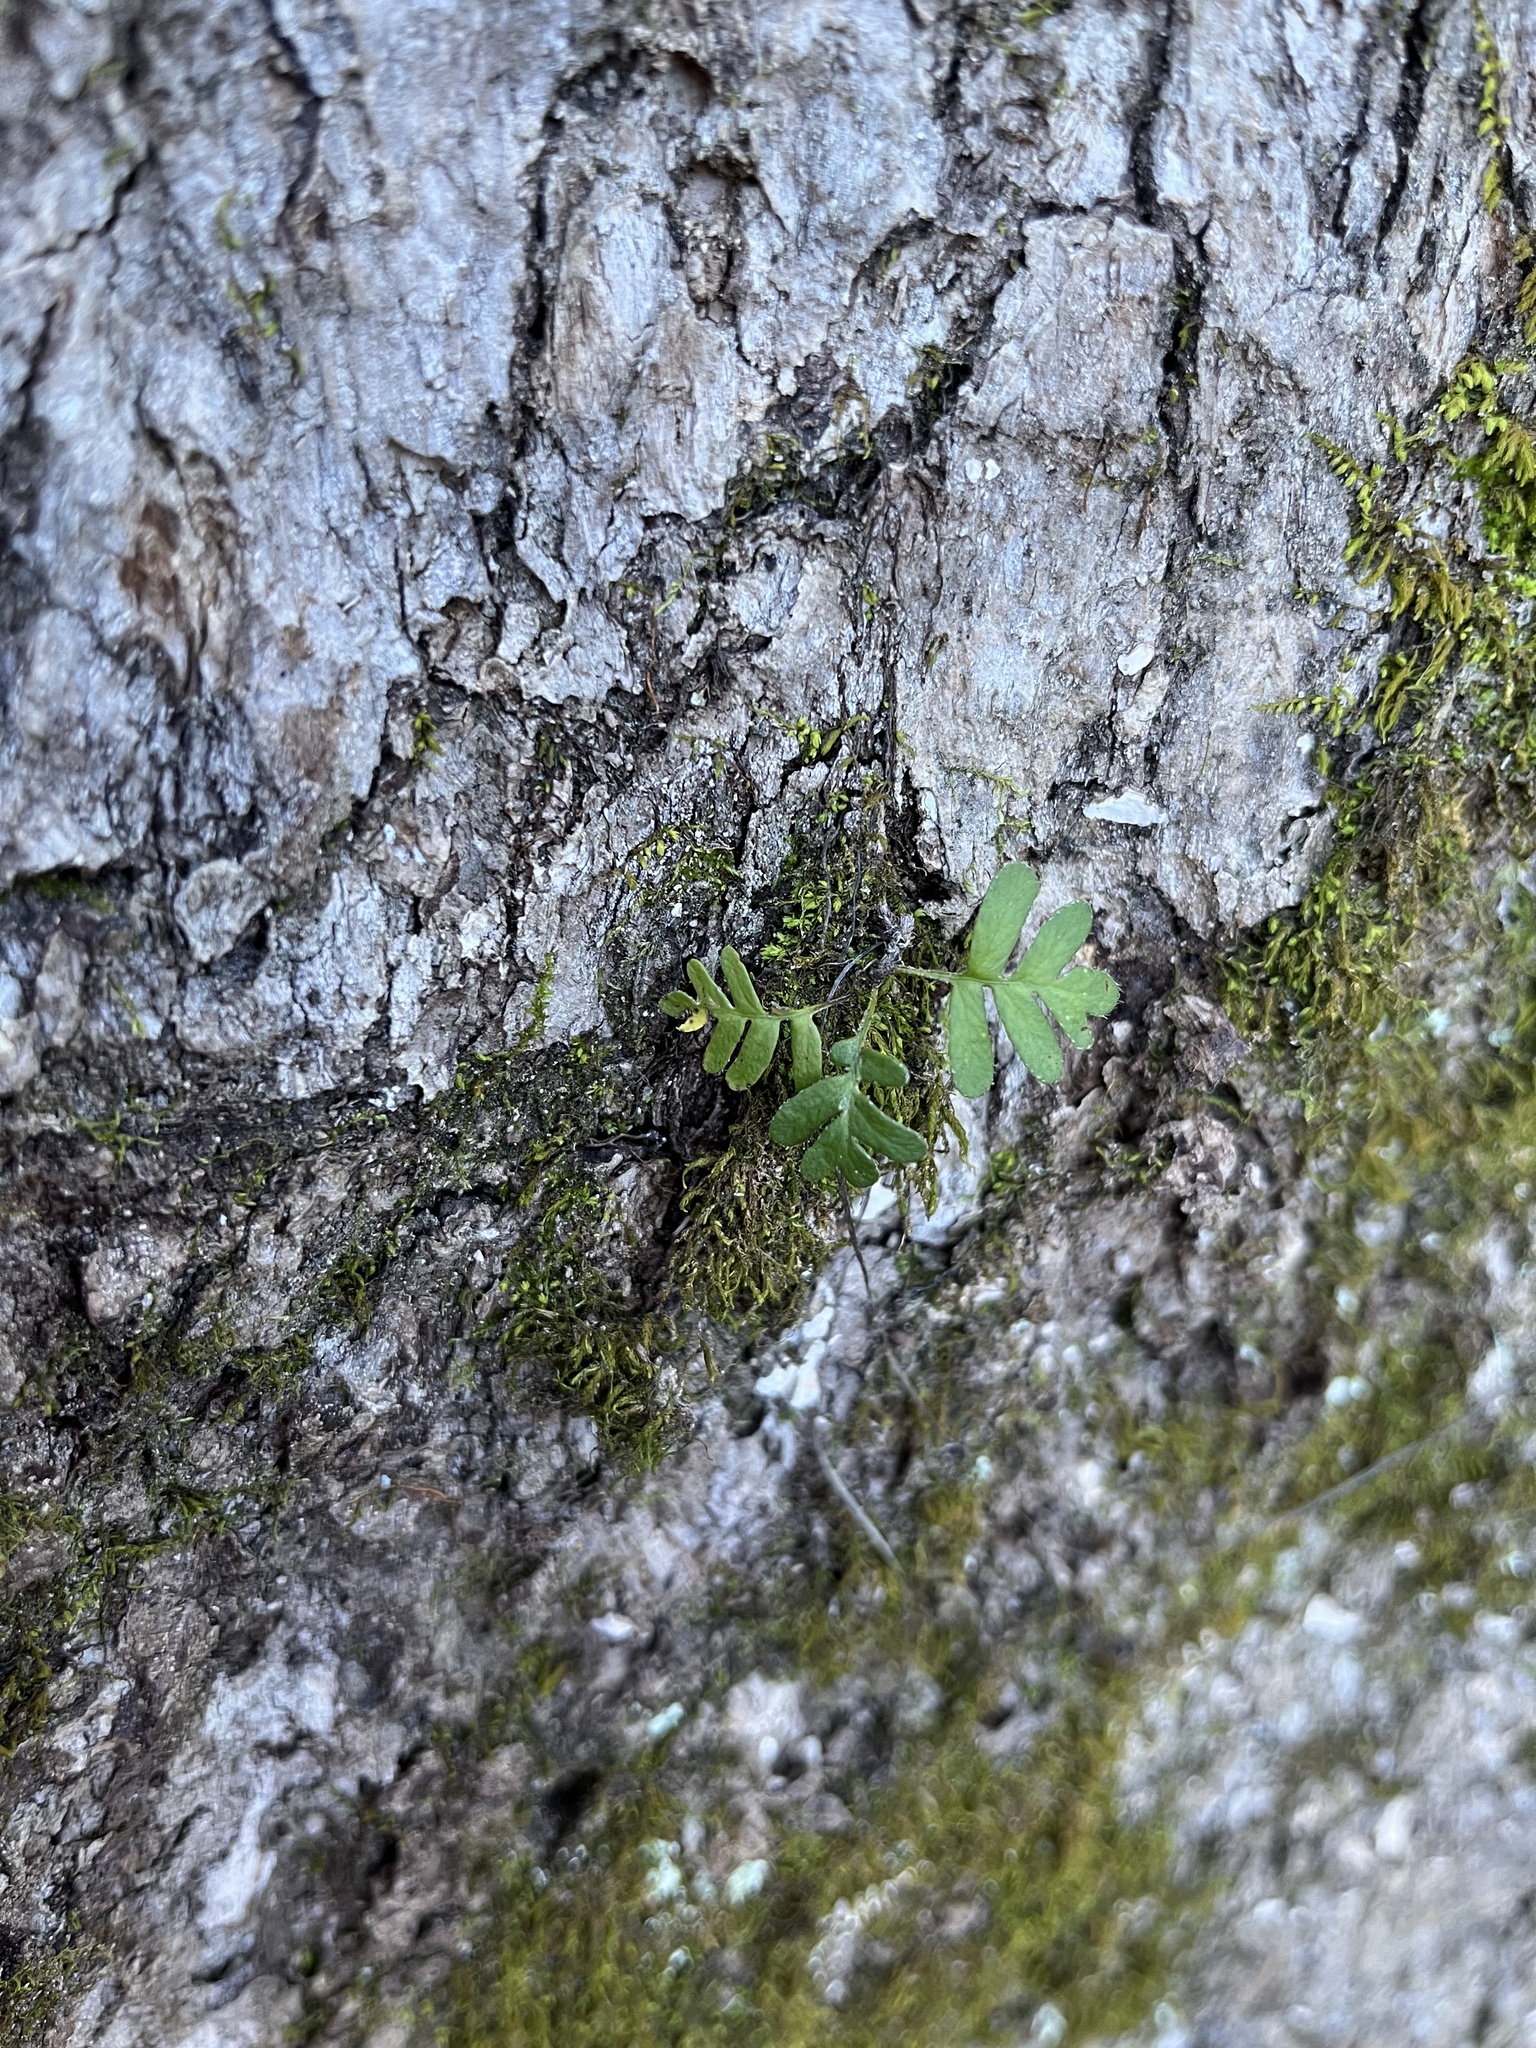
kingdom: Plantae
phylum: Tracheophyta
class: Polypodiopsida
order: Polypodiales
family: Polypodiaceae
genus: Pleopeltis
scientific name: Pleopeltis michauxiana
